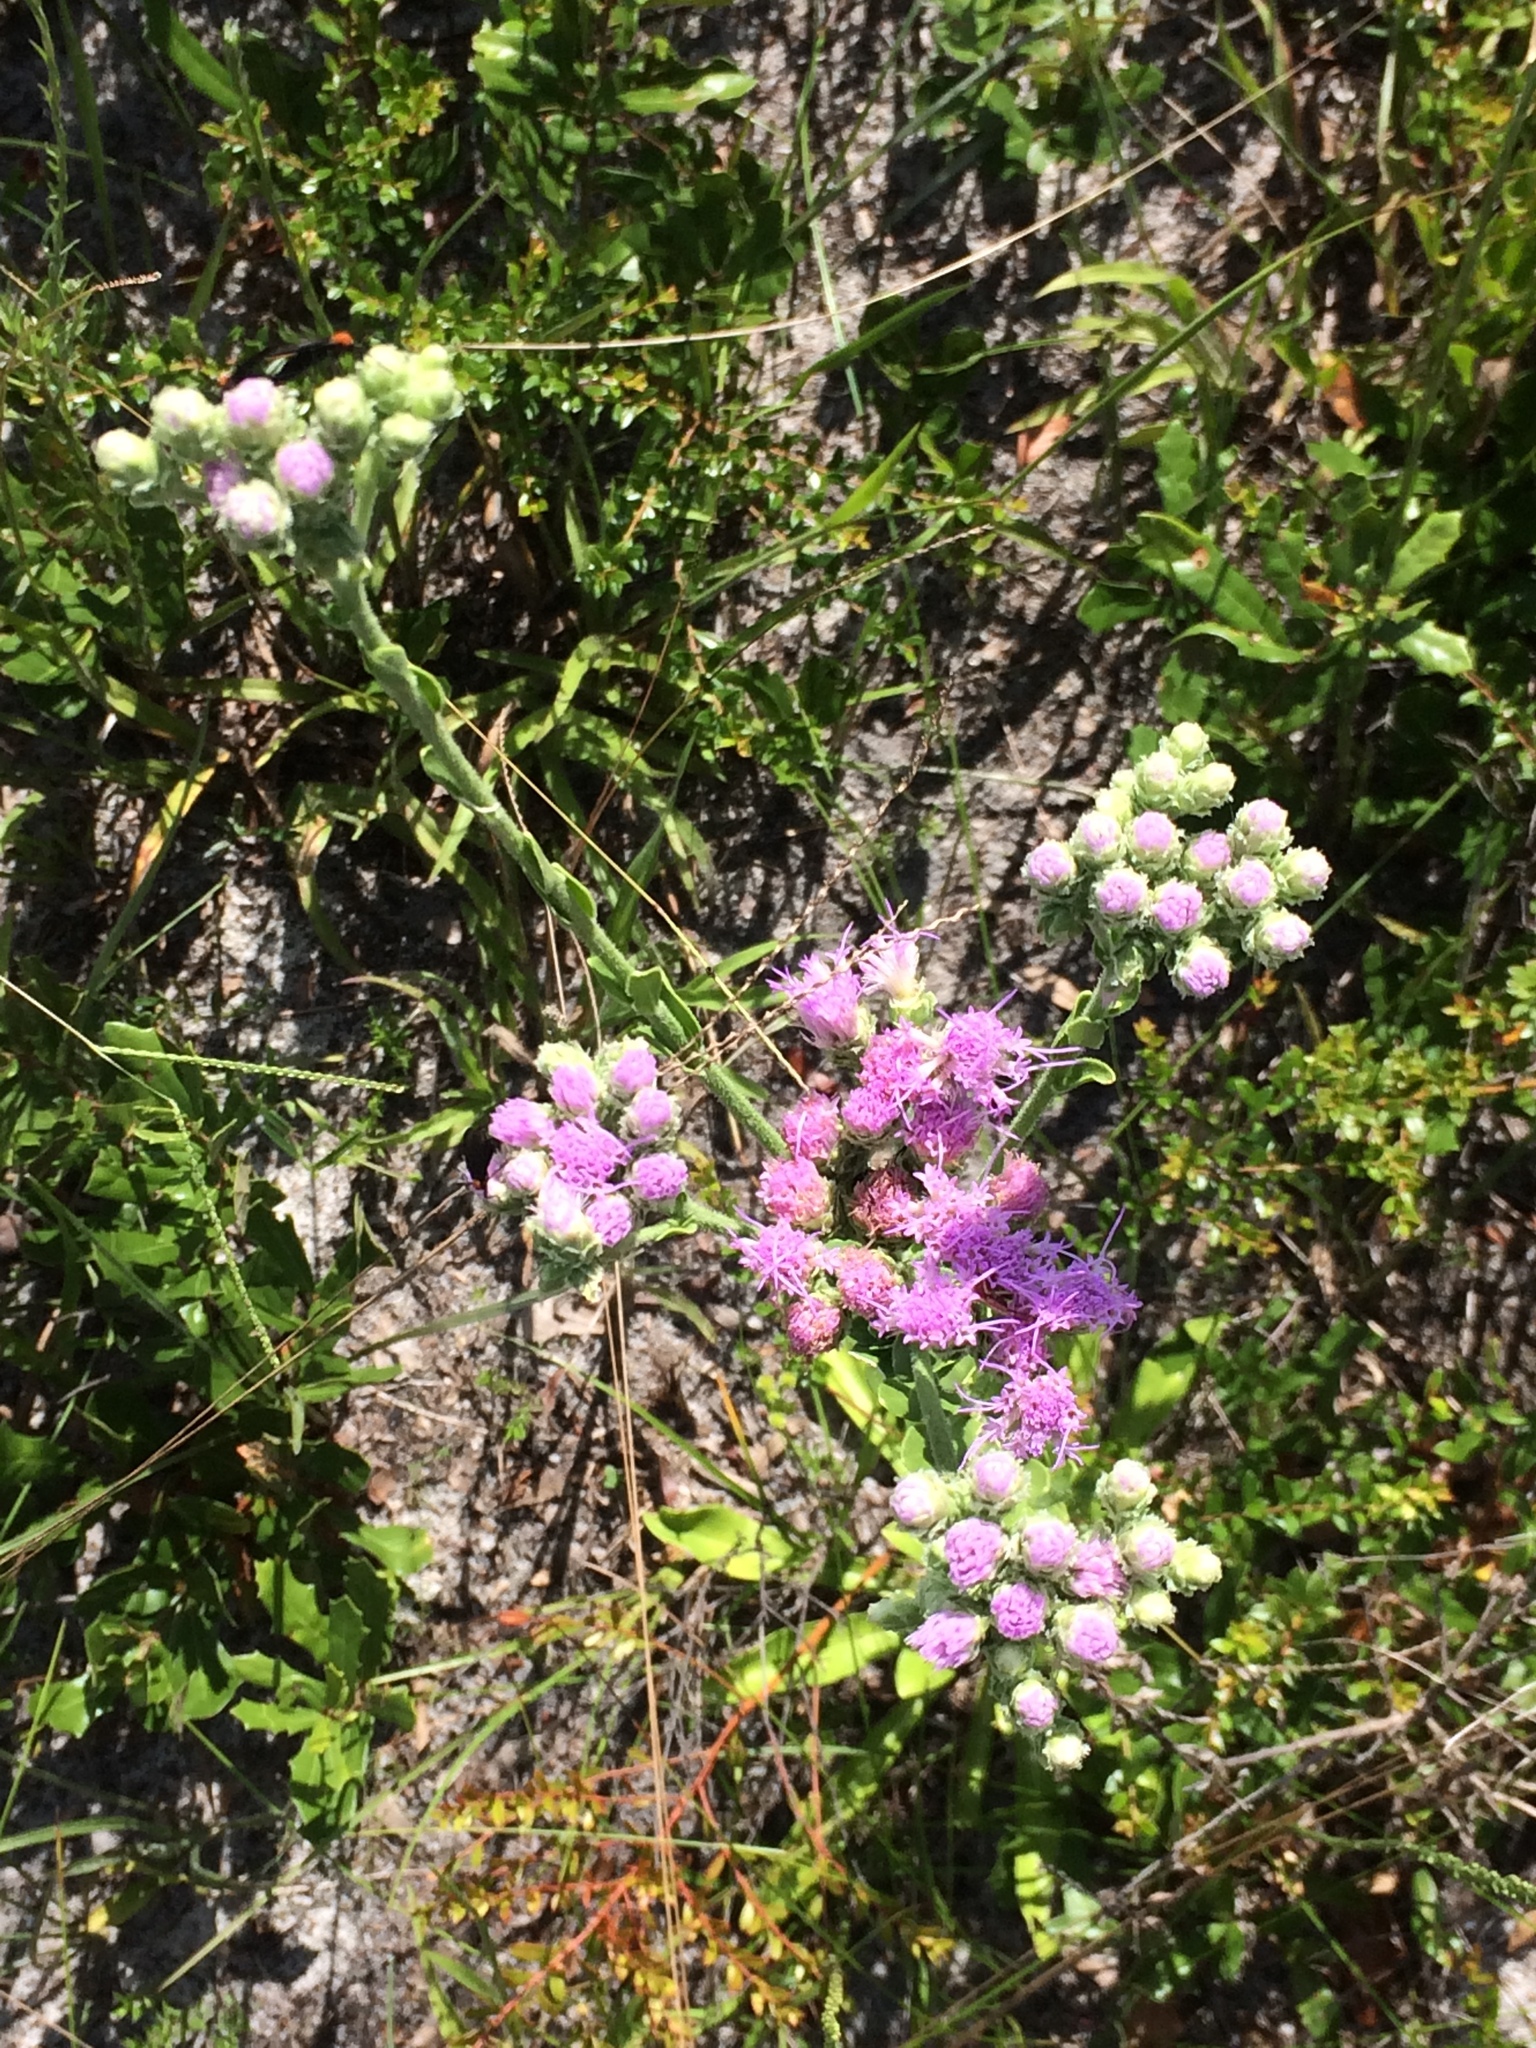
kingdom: Plantae
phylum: Tracheophyta
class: Magnoliopsida
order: Asterales
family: Asteraceae
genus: Carphephorus
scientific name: Carphephorus corymbosus
